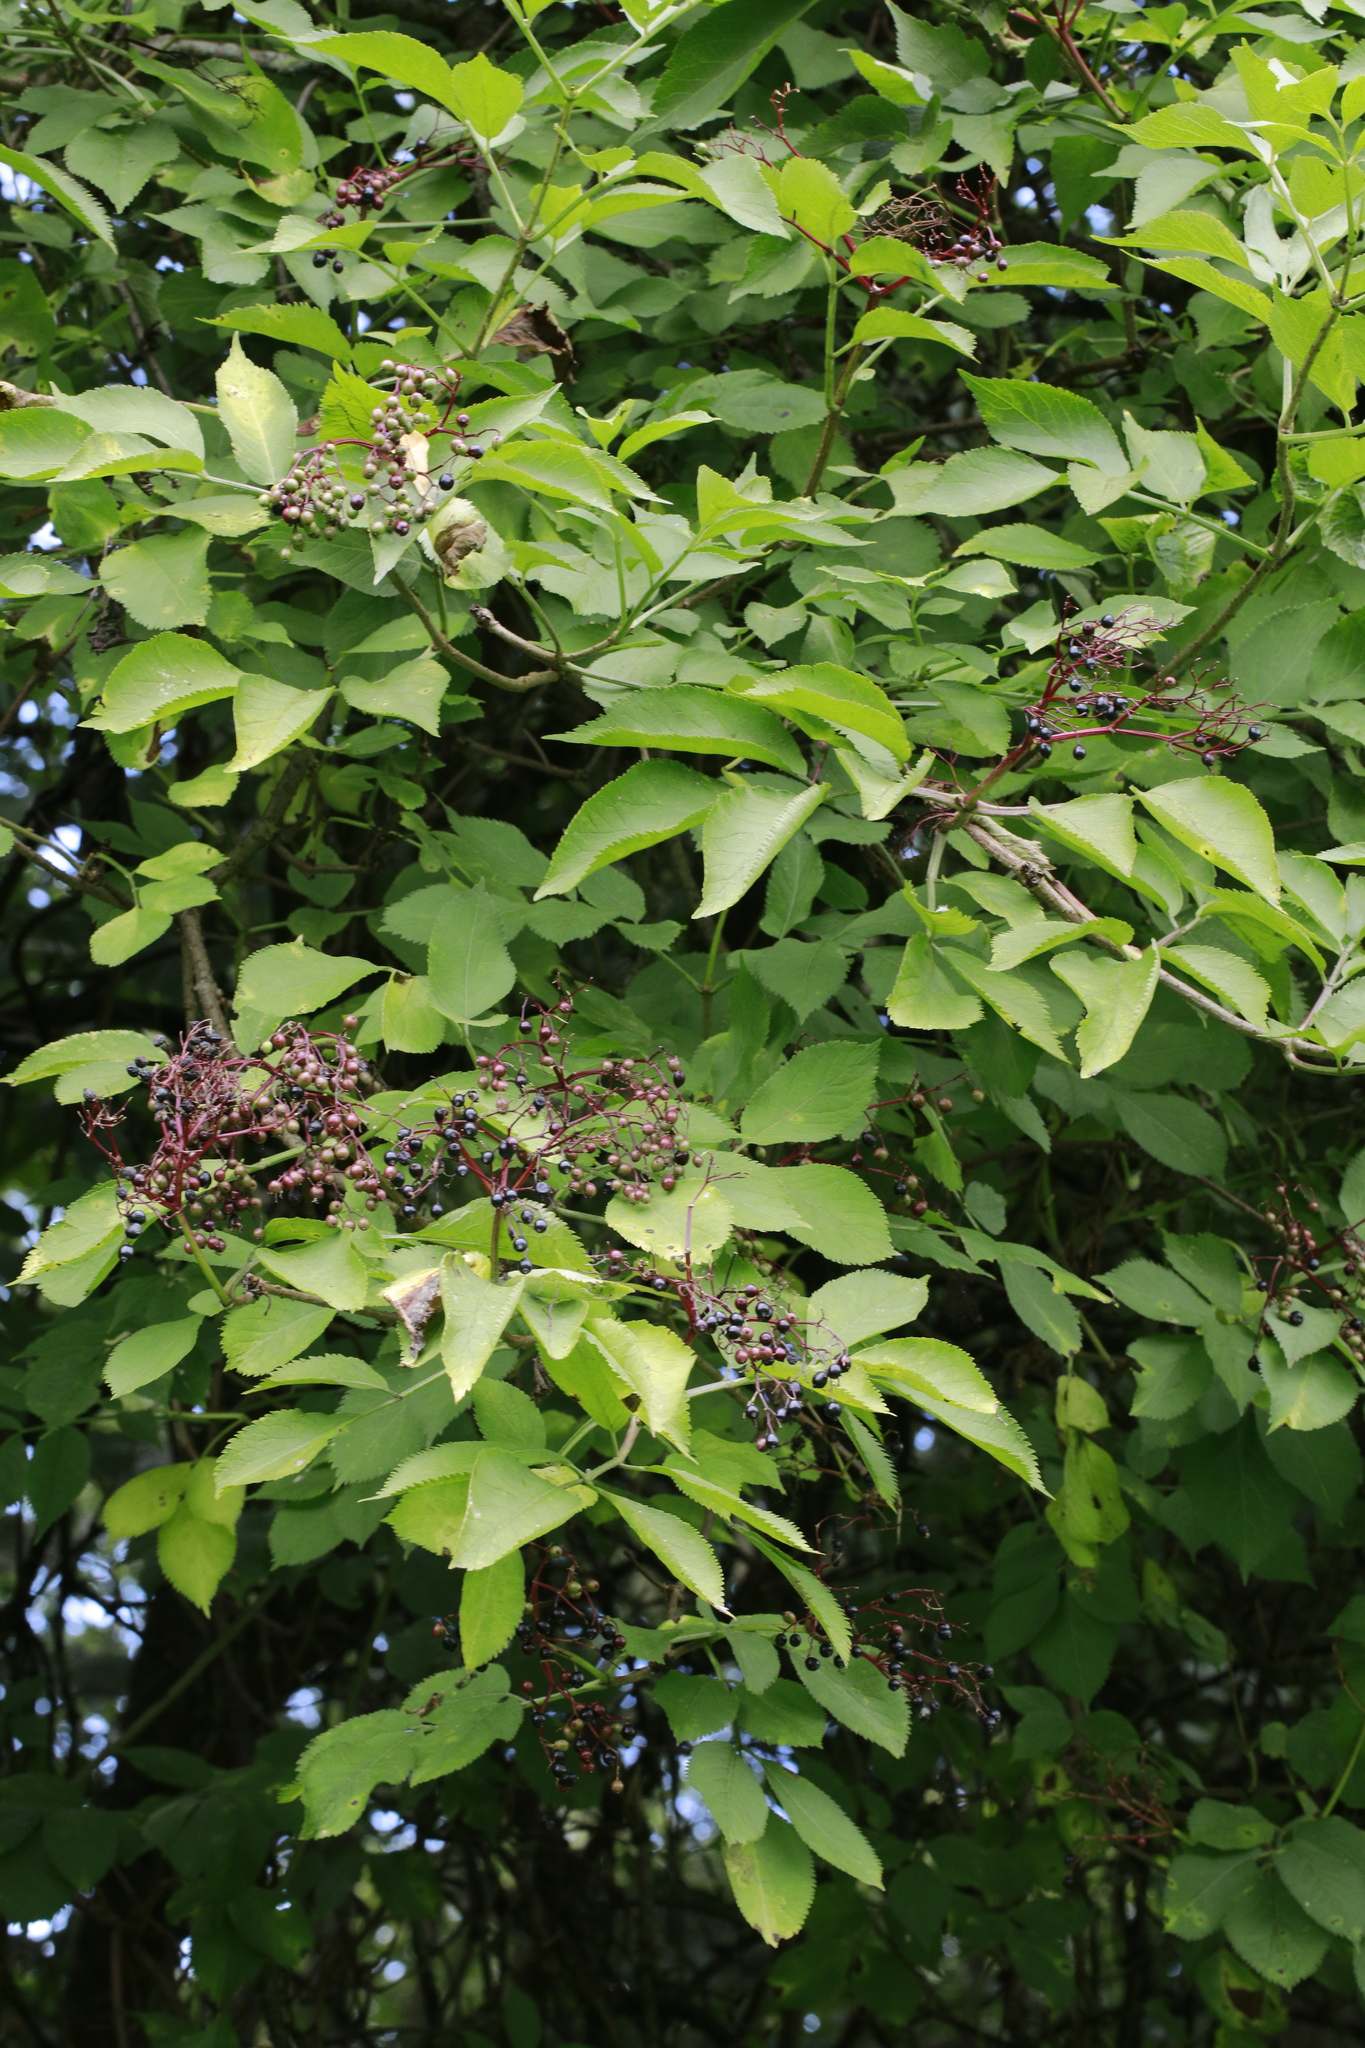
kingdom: Plantae
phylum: Tracheophyta
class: Magnoliopsida
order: Dipsacales
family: Viburnaceae
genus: Sambucus
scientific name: Sambucus nigra
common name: Elder
